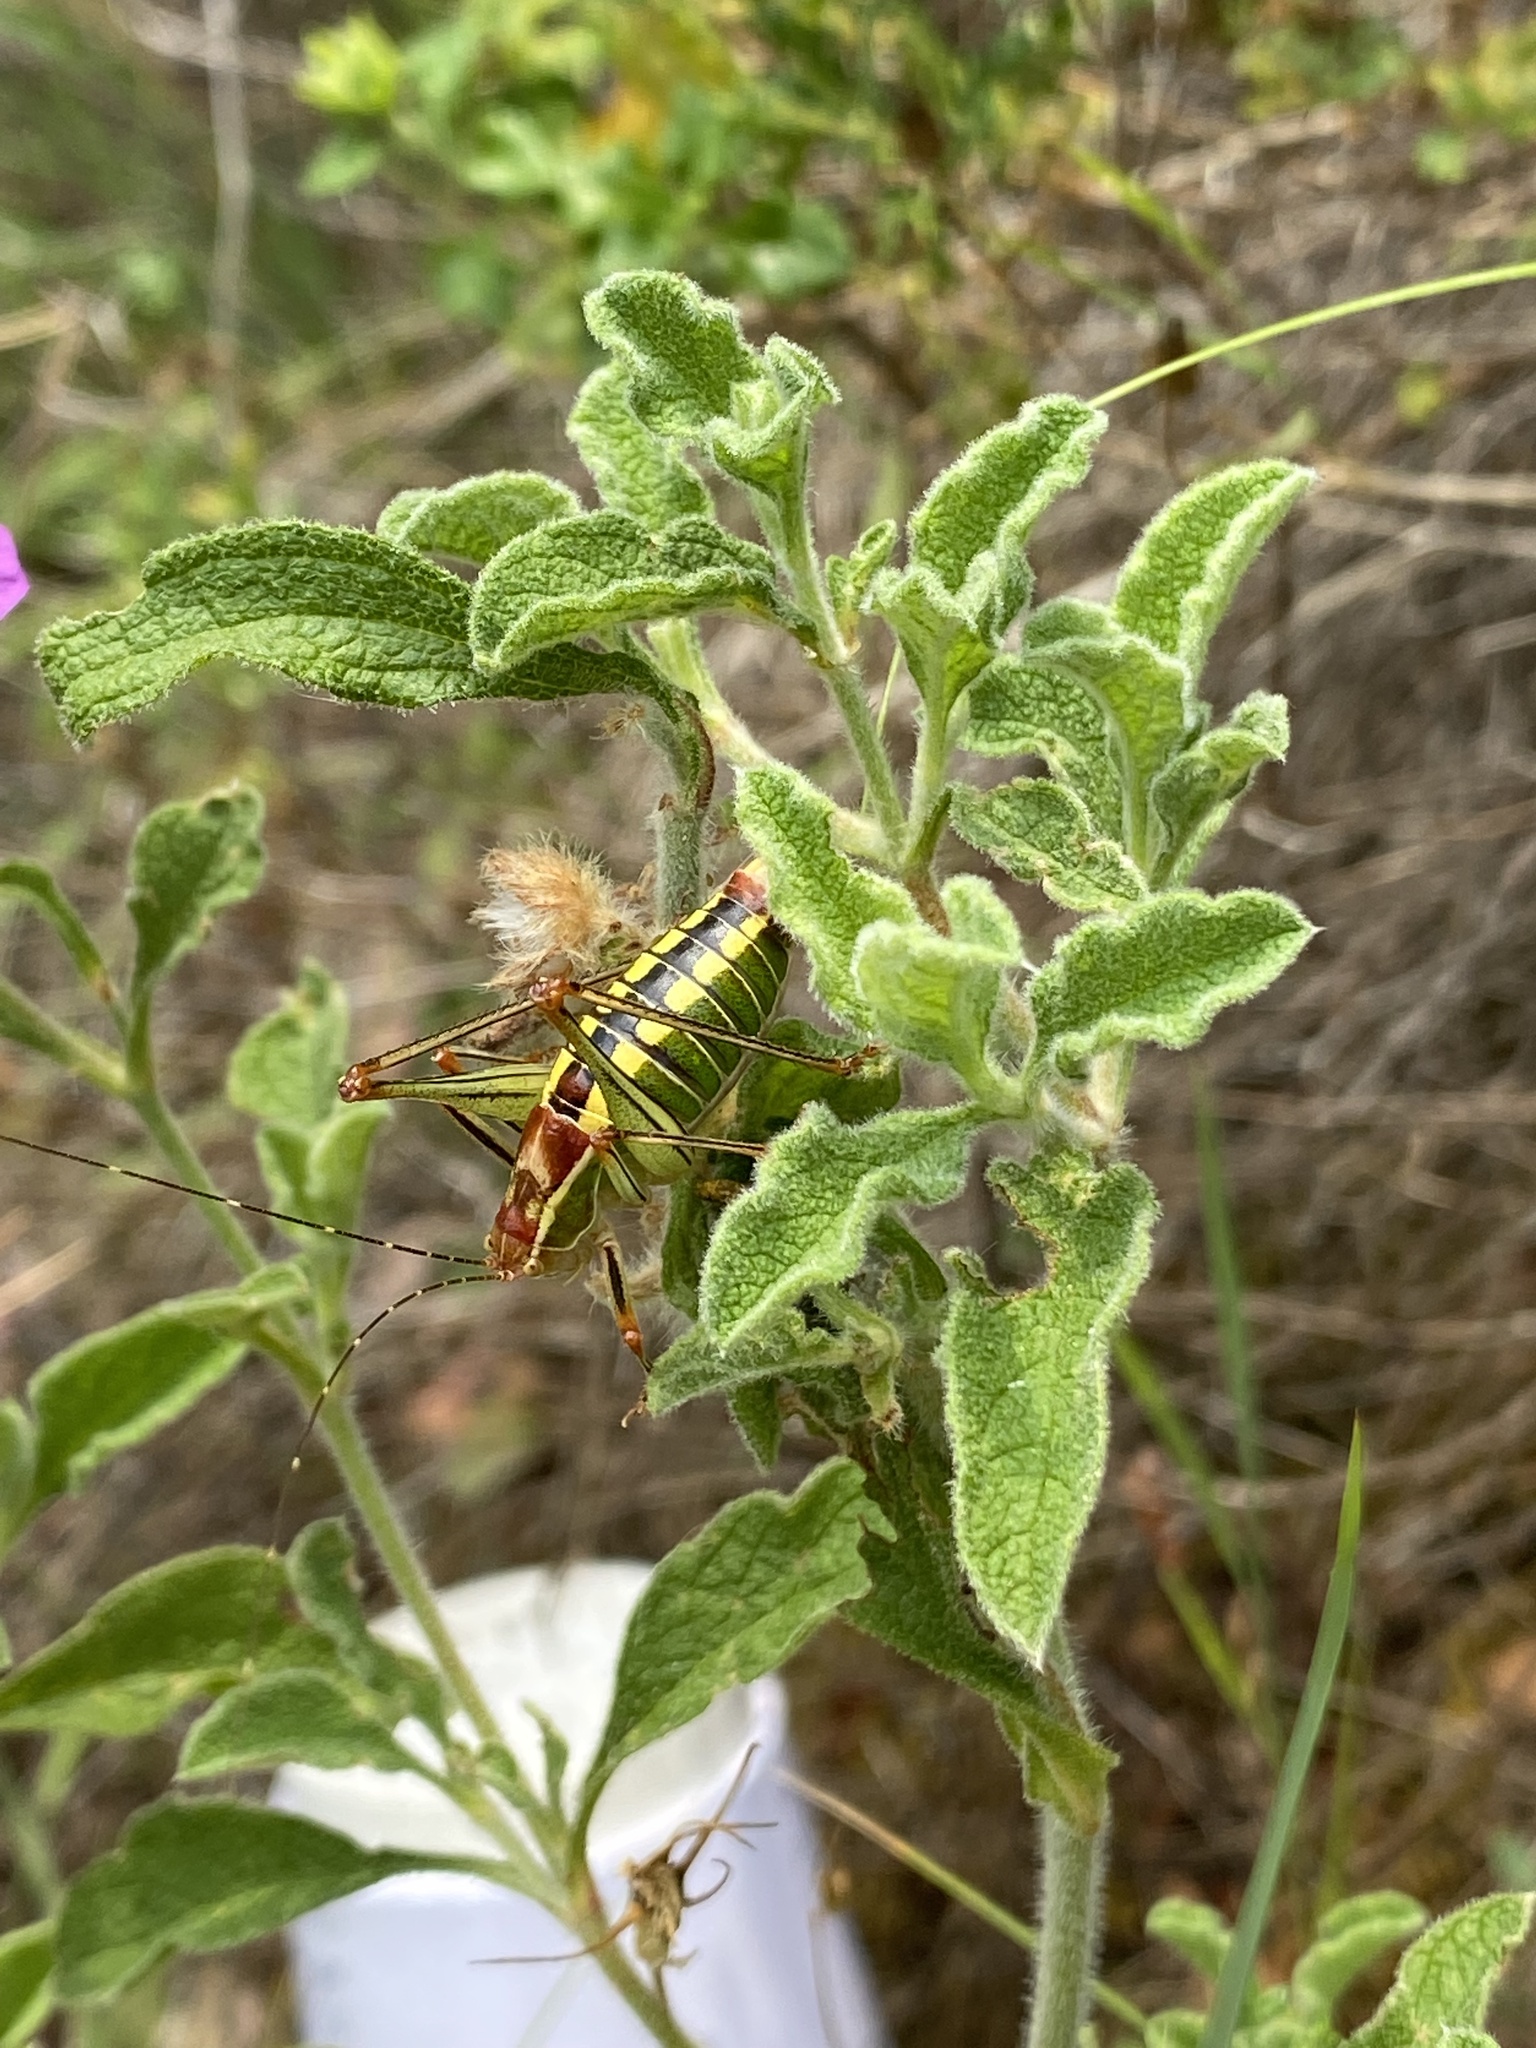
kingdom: Animalia
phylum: Arthropoda
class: Insecta
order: Orthoptera
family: Tettigoniidae
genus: Poecilimon
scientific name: Poecilimon jonicus
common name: Ionian bright bush-cricket
